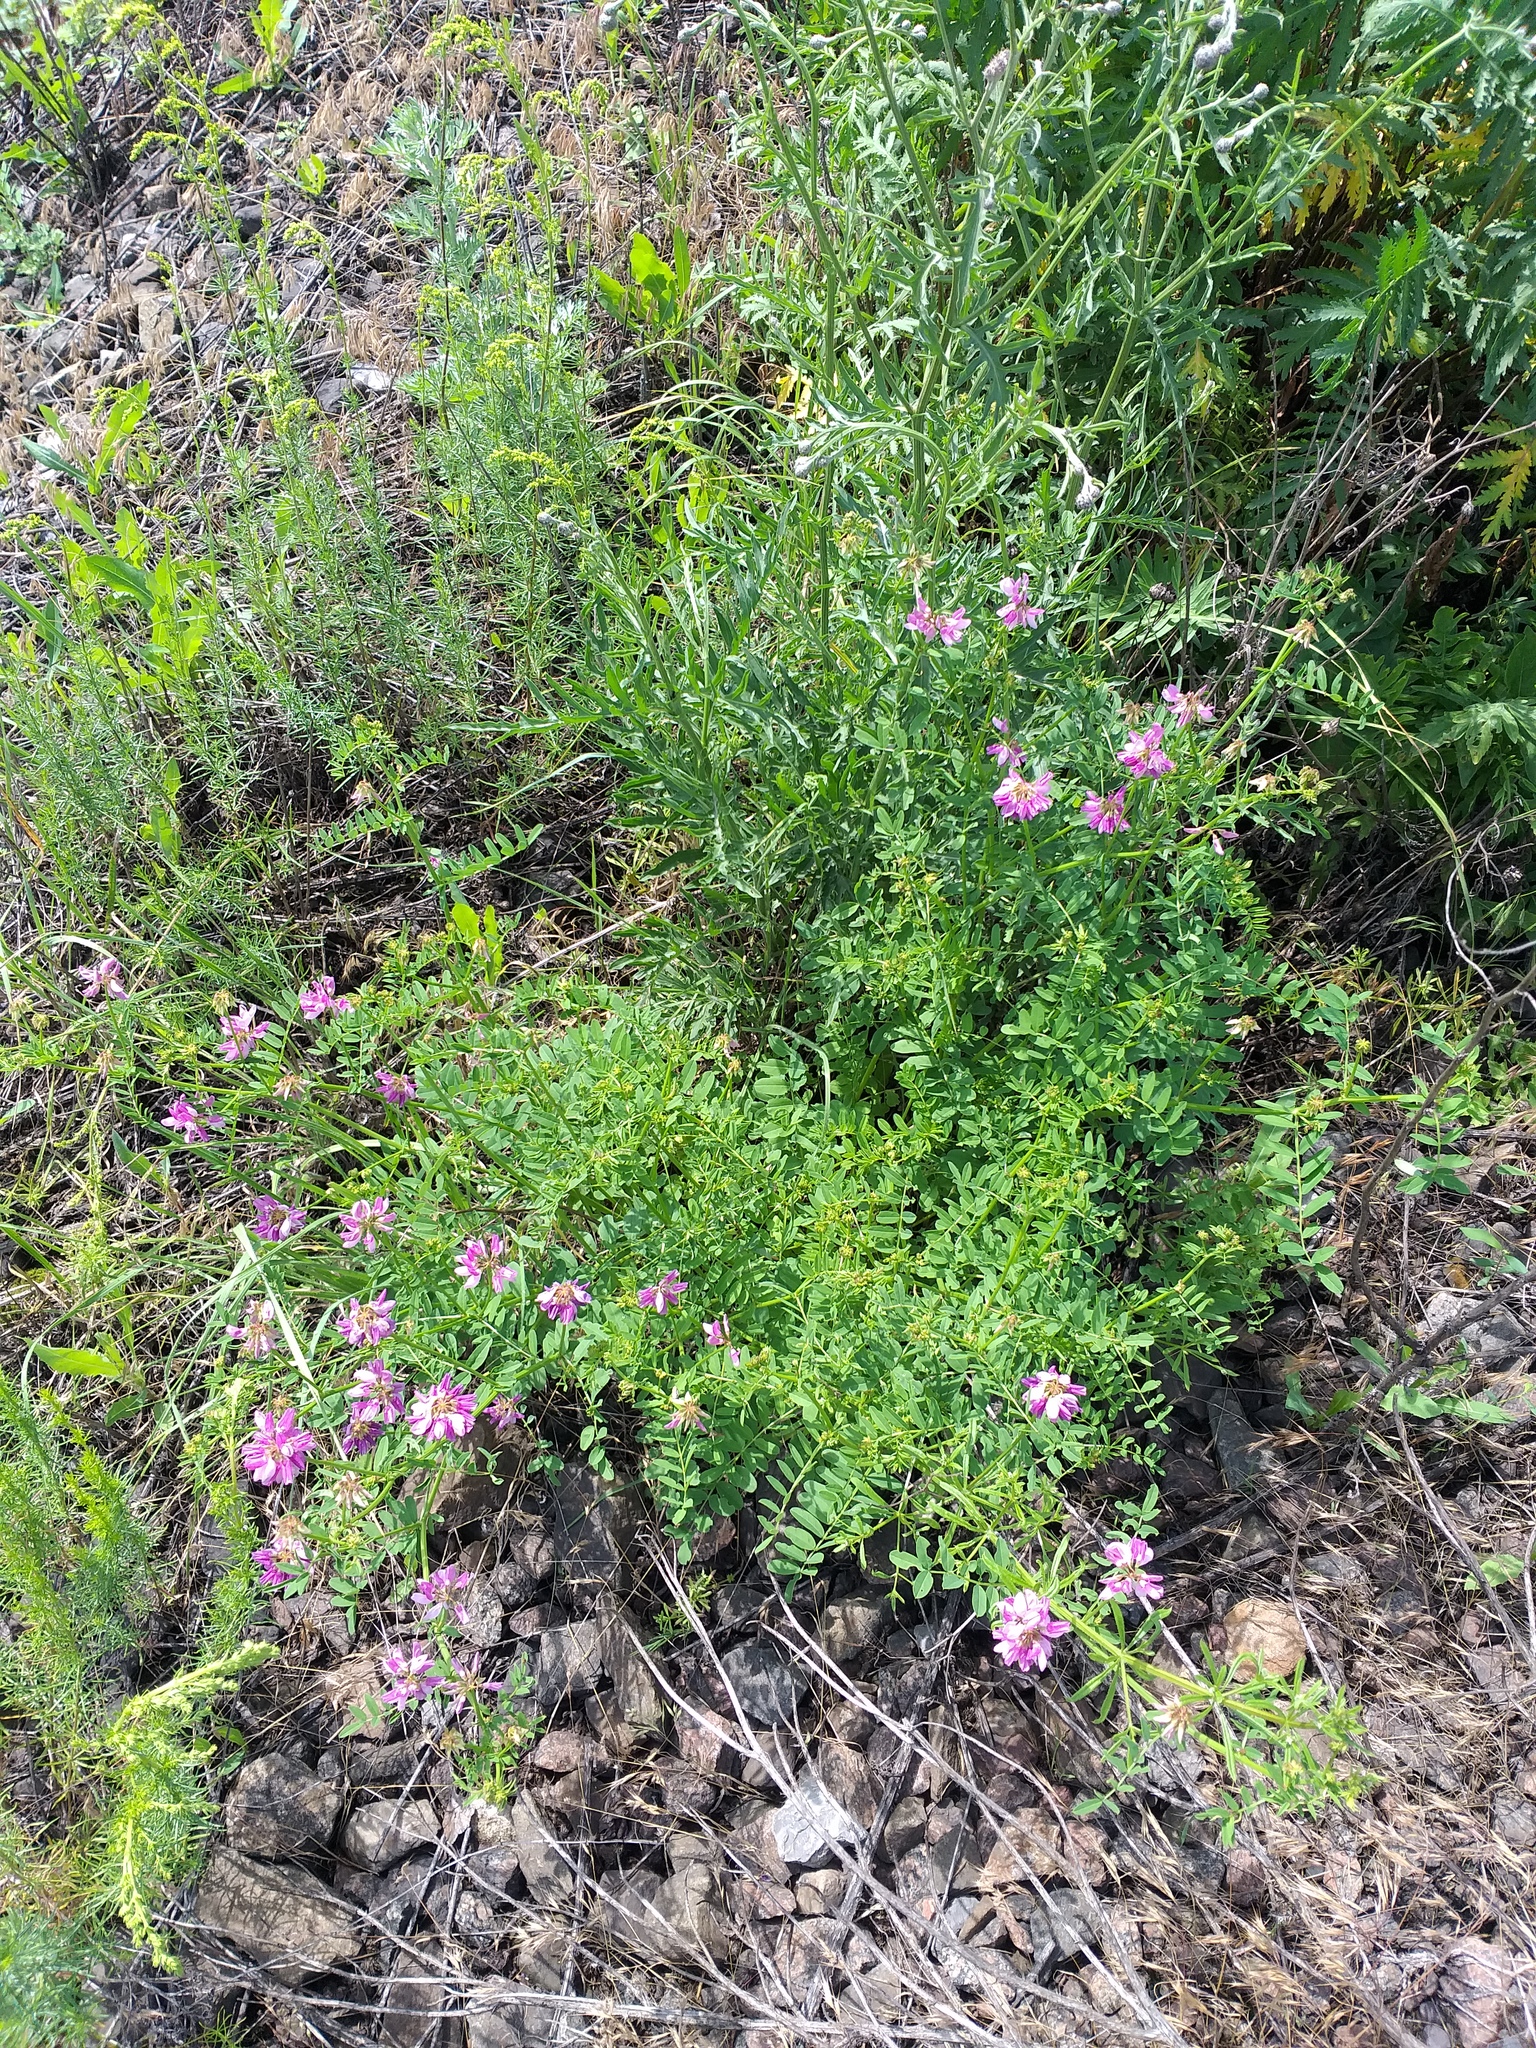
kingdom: Plantae
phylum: Tracheophyta
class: Magnoliopsida
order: Fabales
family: Fabaceae
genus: Coronilla
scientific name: Coronilla varia
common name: Crownvetch
